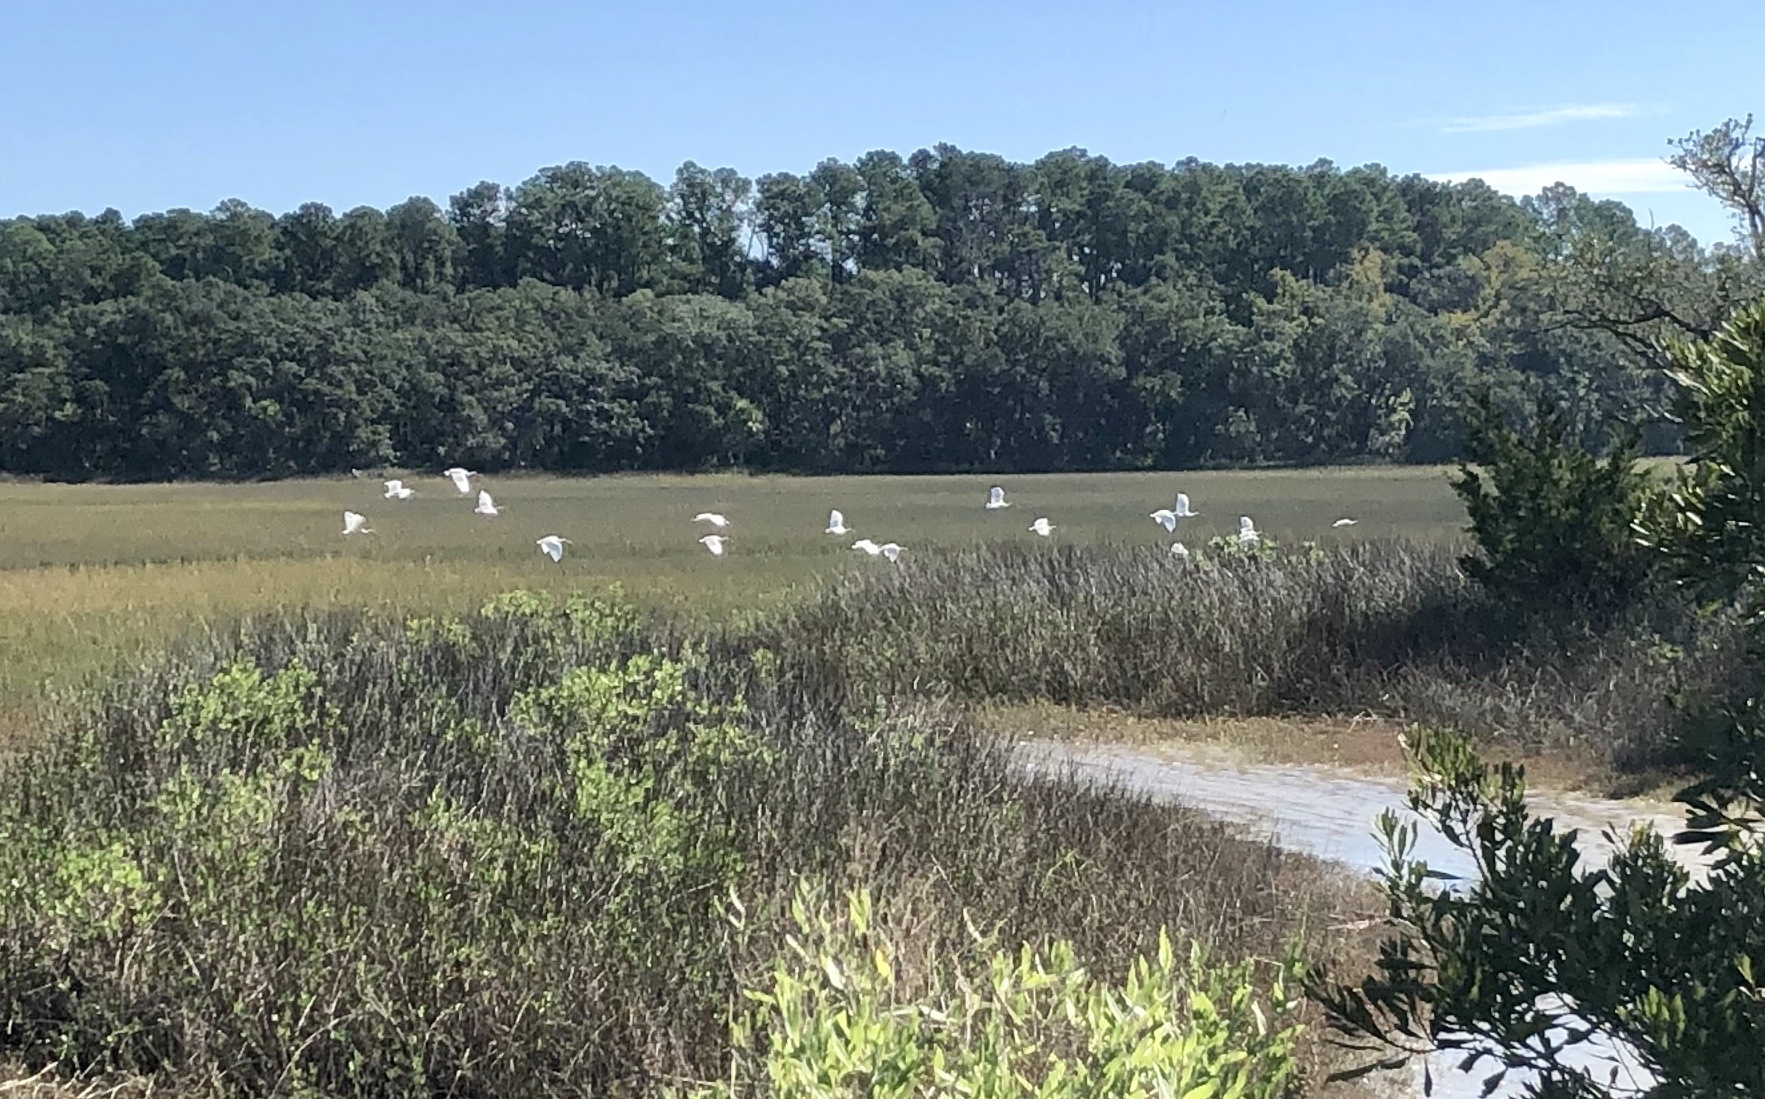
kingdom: Animalia
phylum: Chordata
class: Aves
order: Pelecaniformes
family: Threskiornithidae
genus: Eudocimus
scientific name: Eudocimus albus
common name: White ibis
